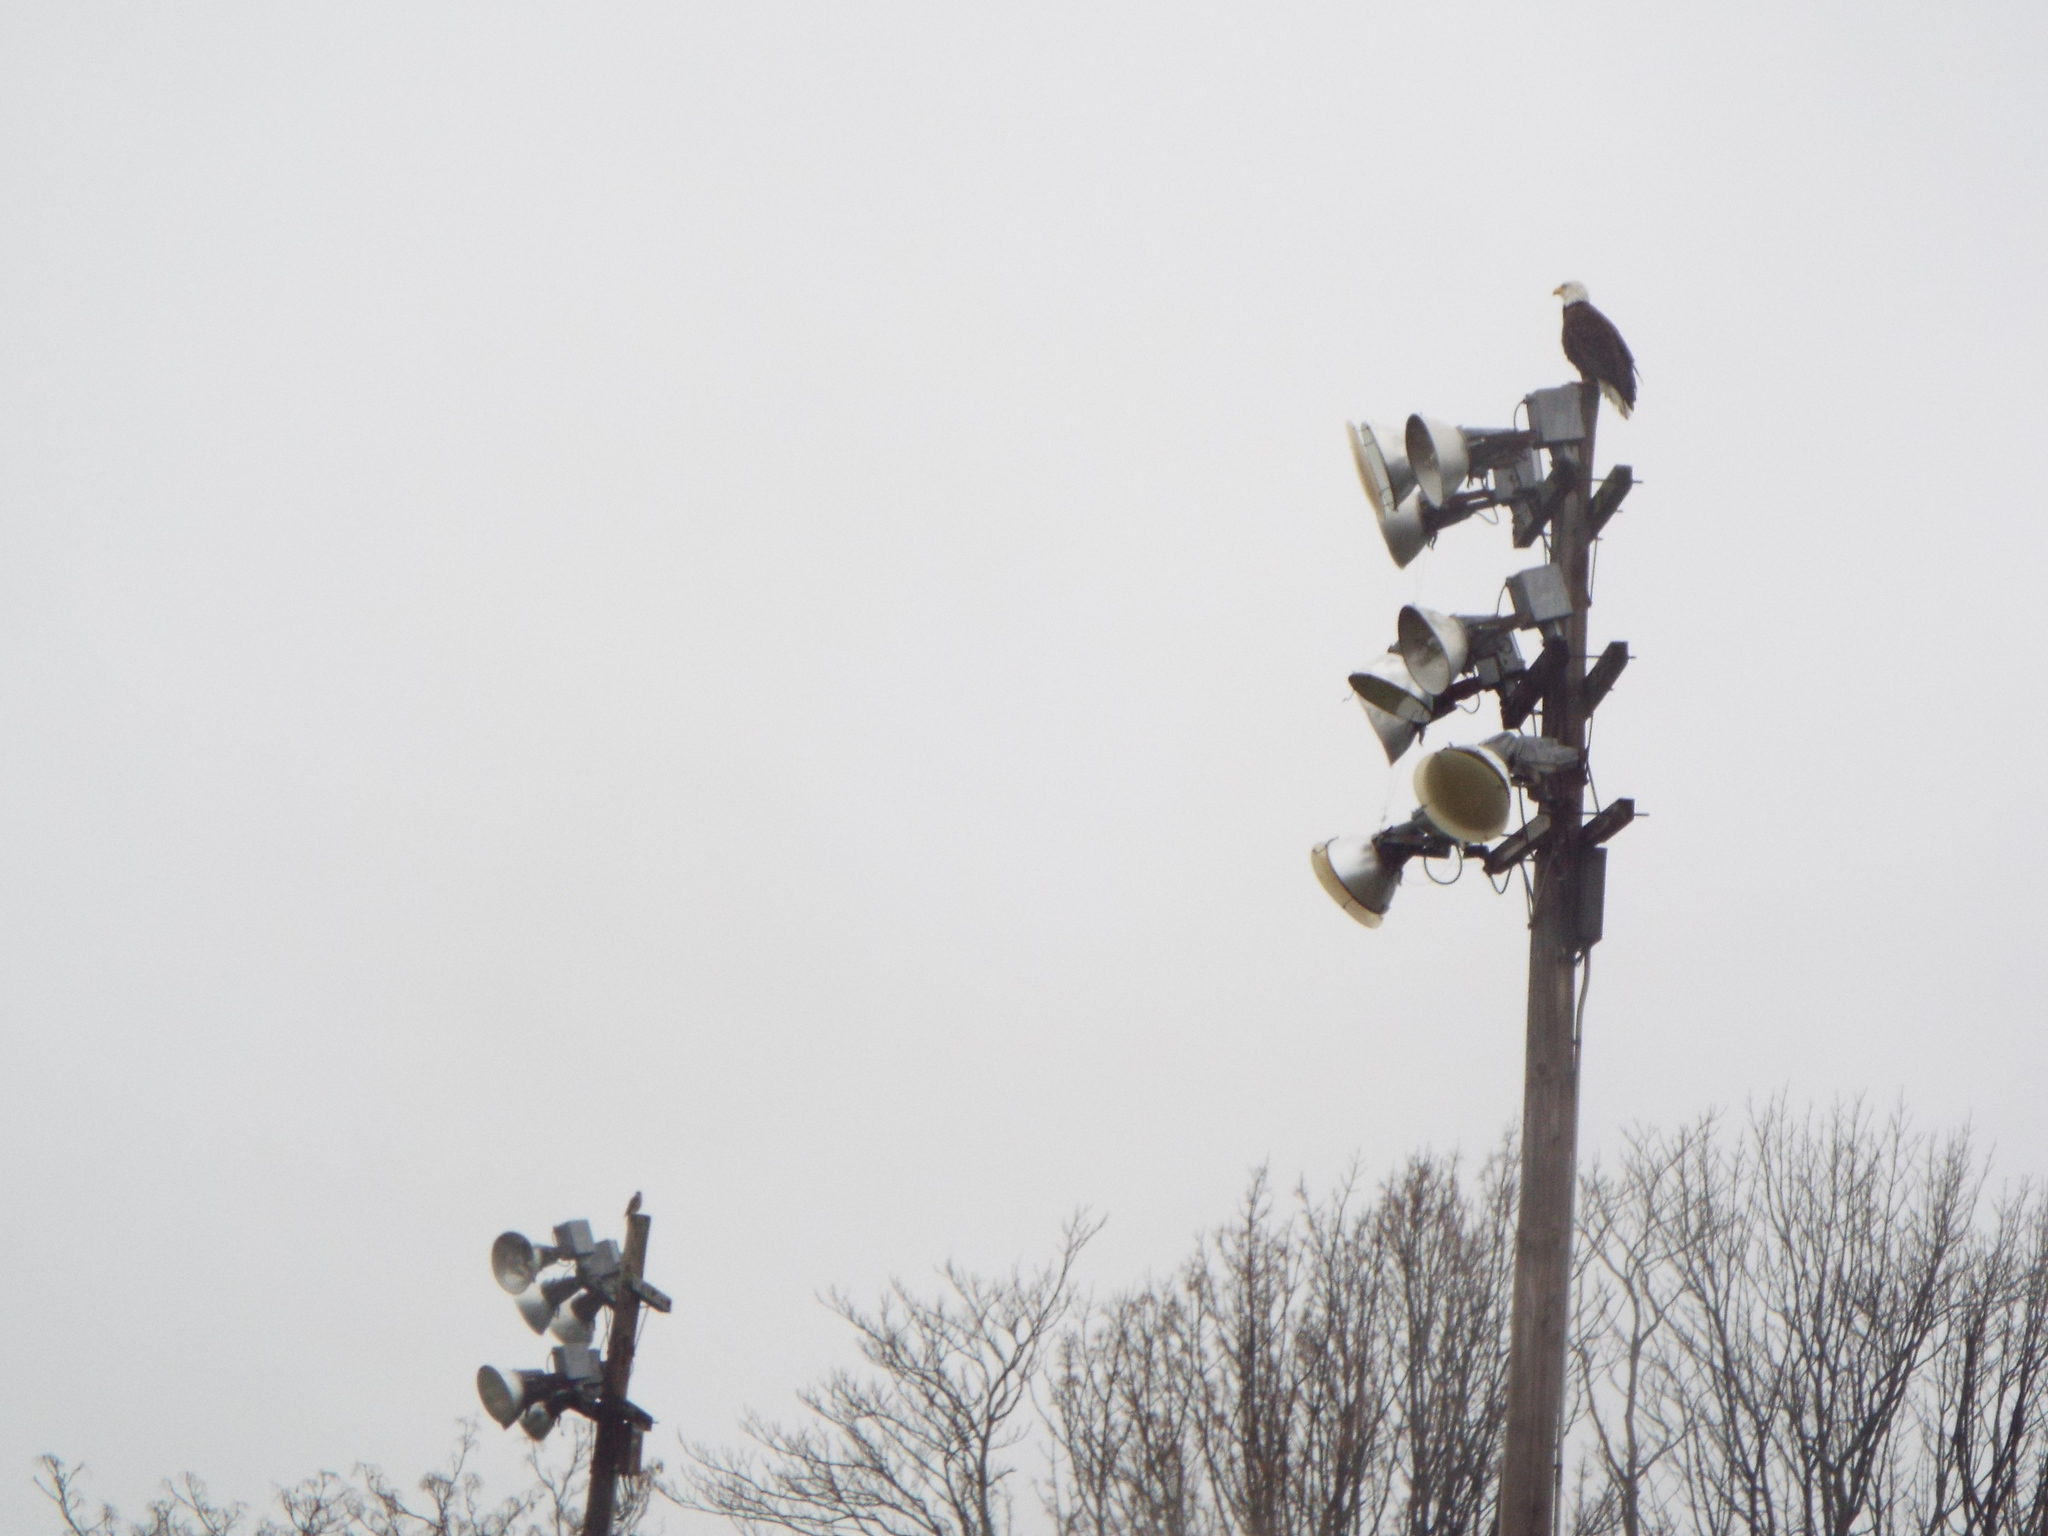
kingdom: Animalia
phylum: Chordata
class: Aves
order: Falconiformes
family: Falconidae
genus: Falco
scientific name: Falco columbarius
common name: Merlin
